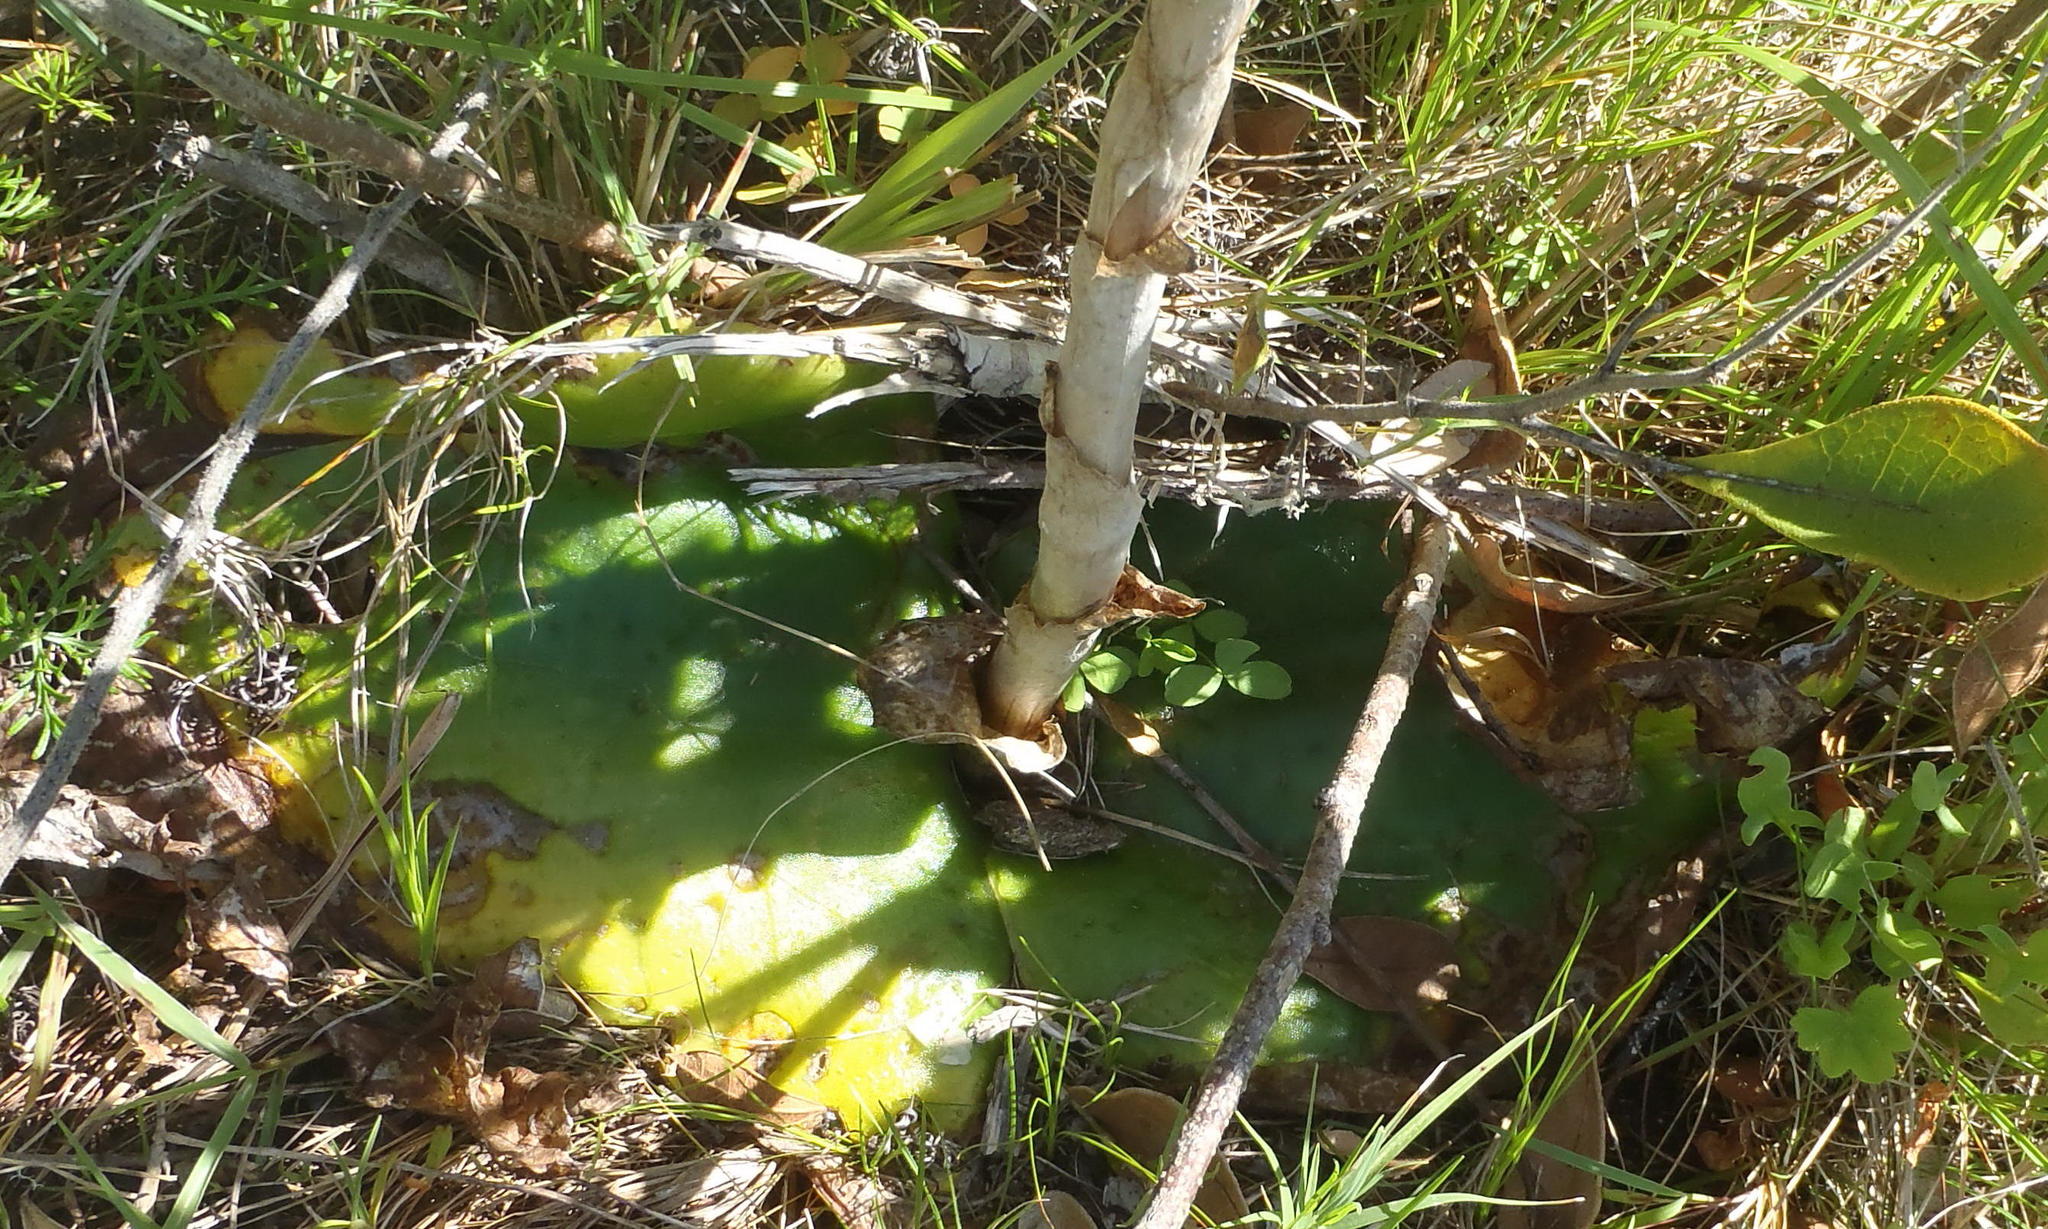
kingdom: Plantae
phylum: Tracheophyta
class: Liliopsida
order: Asparagales
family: Orchidaceae
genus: Satyrium
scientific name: Satyrium princeps
